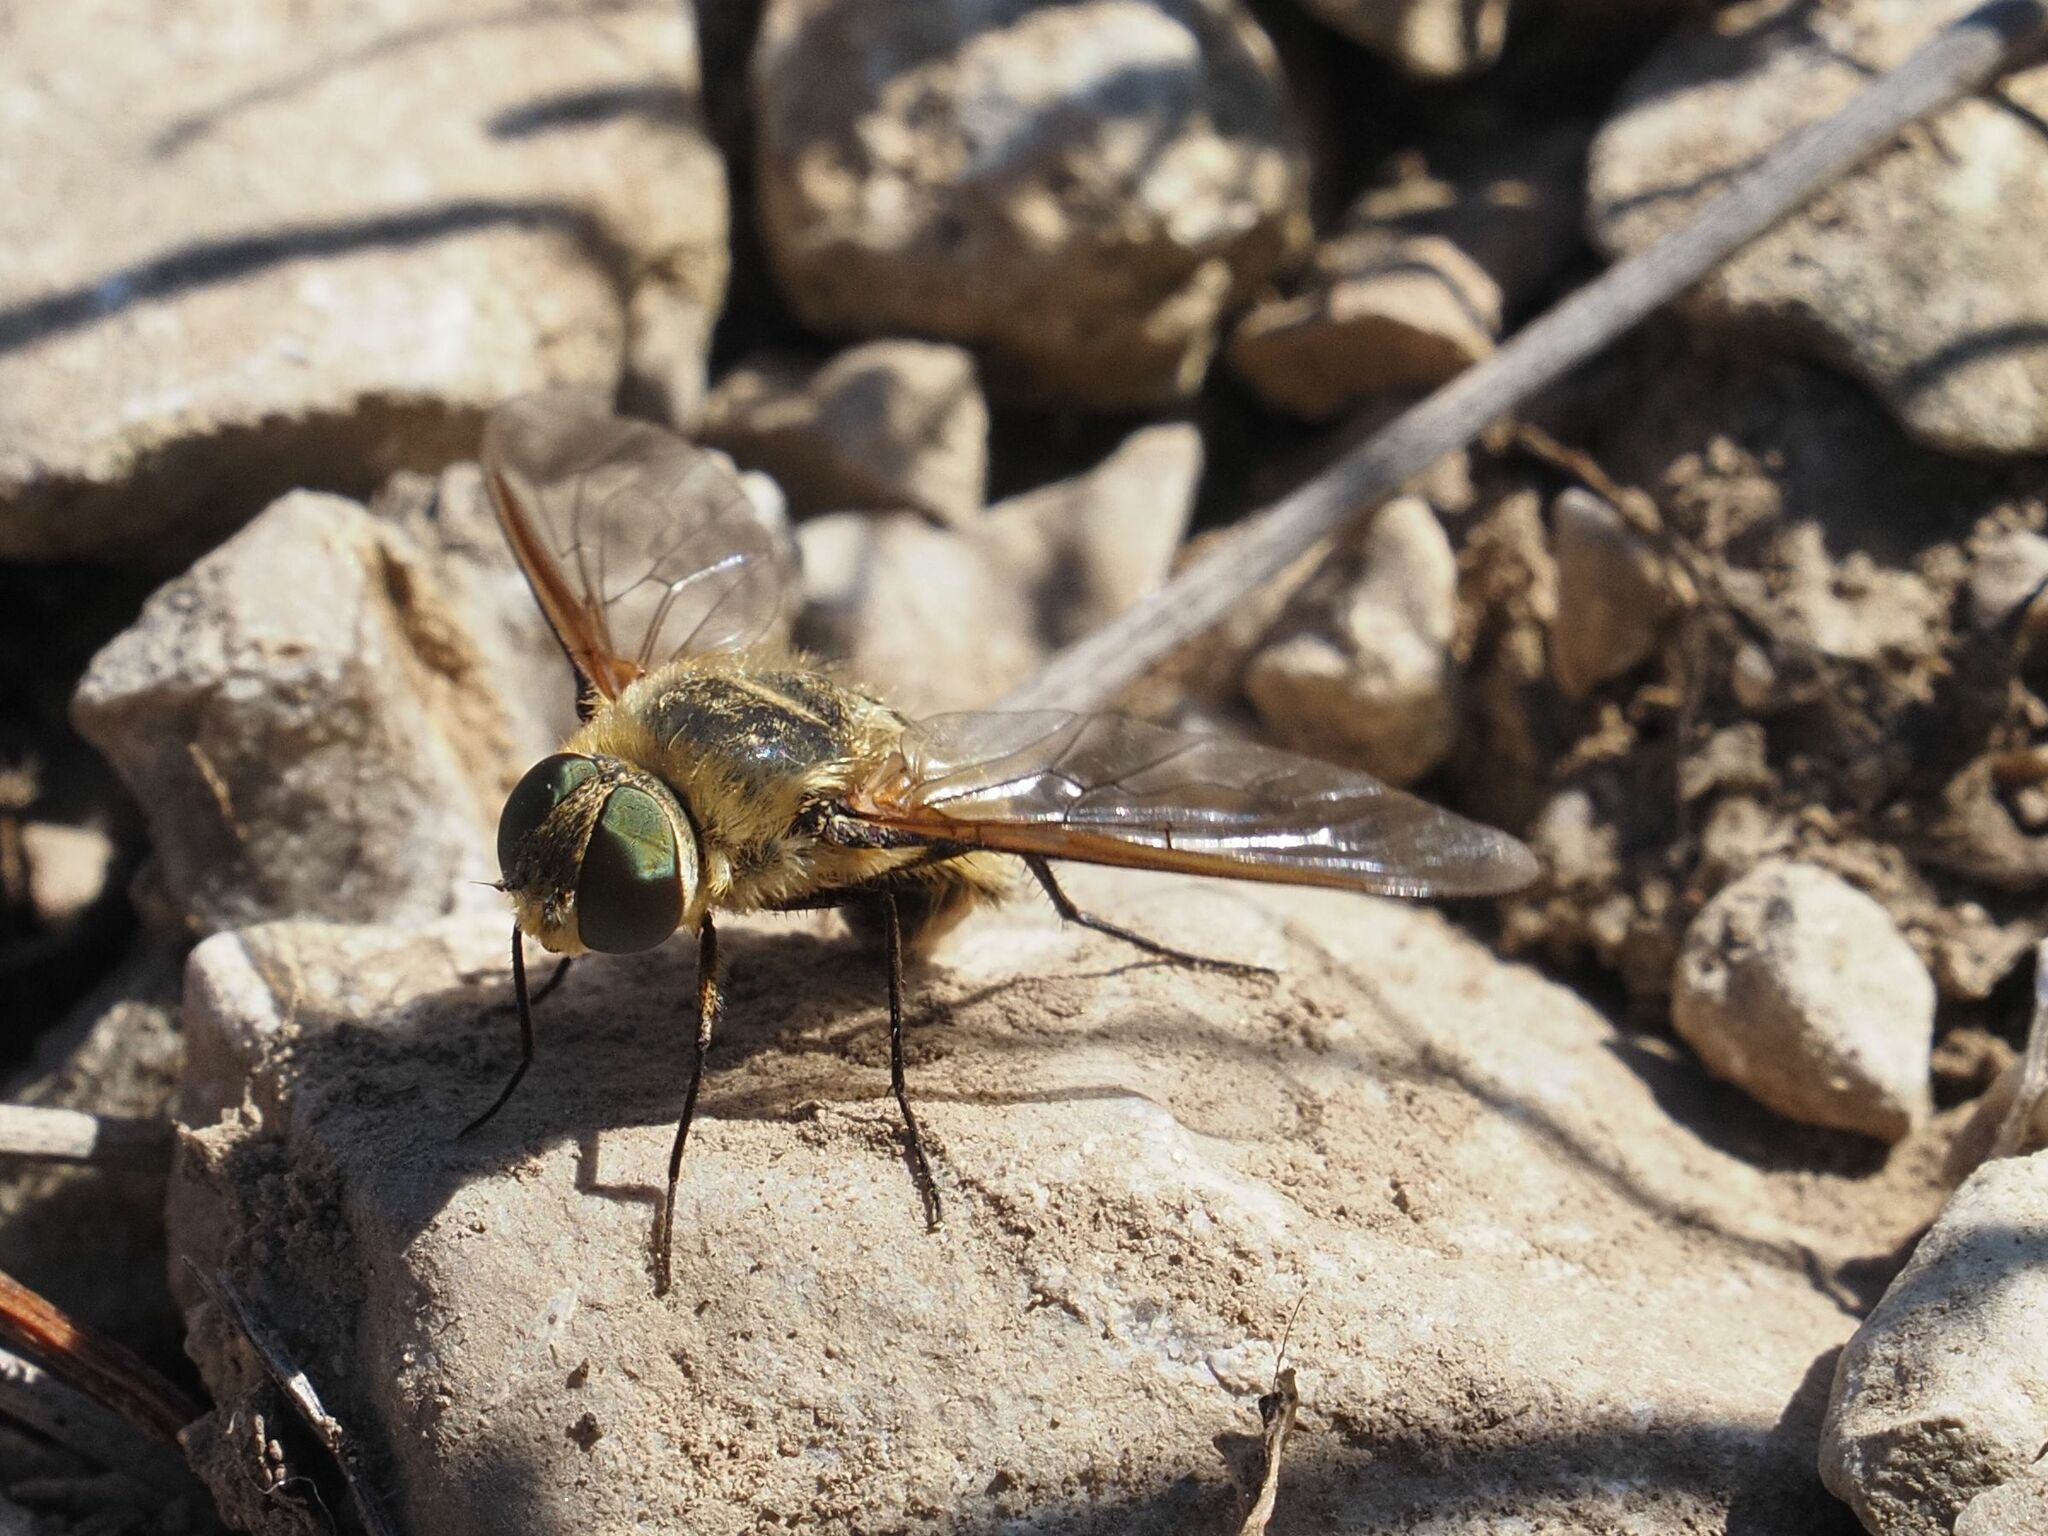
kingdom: Animalia
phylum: Arthropoda
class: Insecta
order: Diptera
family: Bombyliidae
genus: Villa
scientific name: Villa hottentotta
